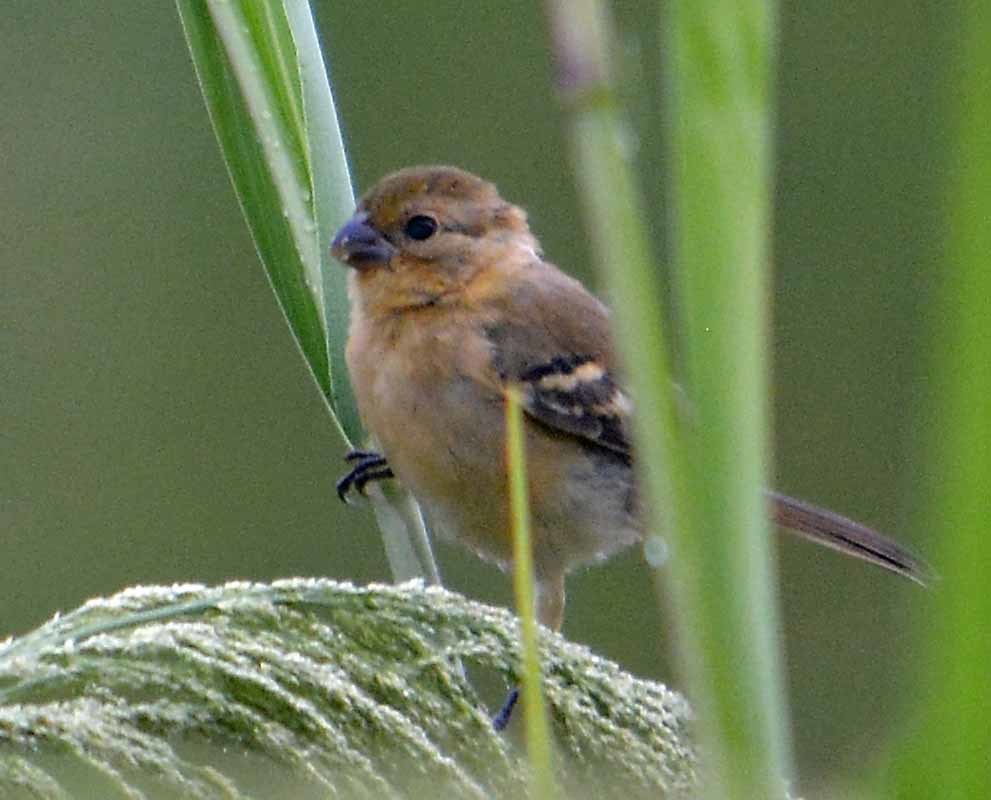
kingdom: Animalia
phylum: Chordata
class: Aves
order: Passeriformes
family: Thraupidae
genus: Sporophila
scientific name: Sporophila morelleti
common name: Morelet's seedeater
